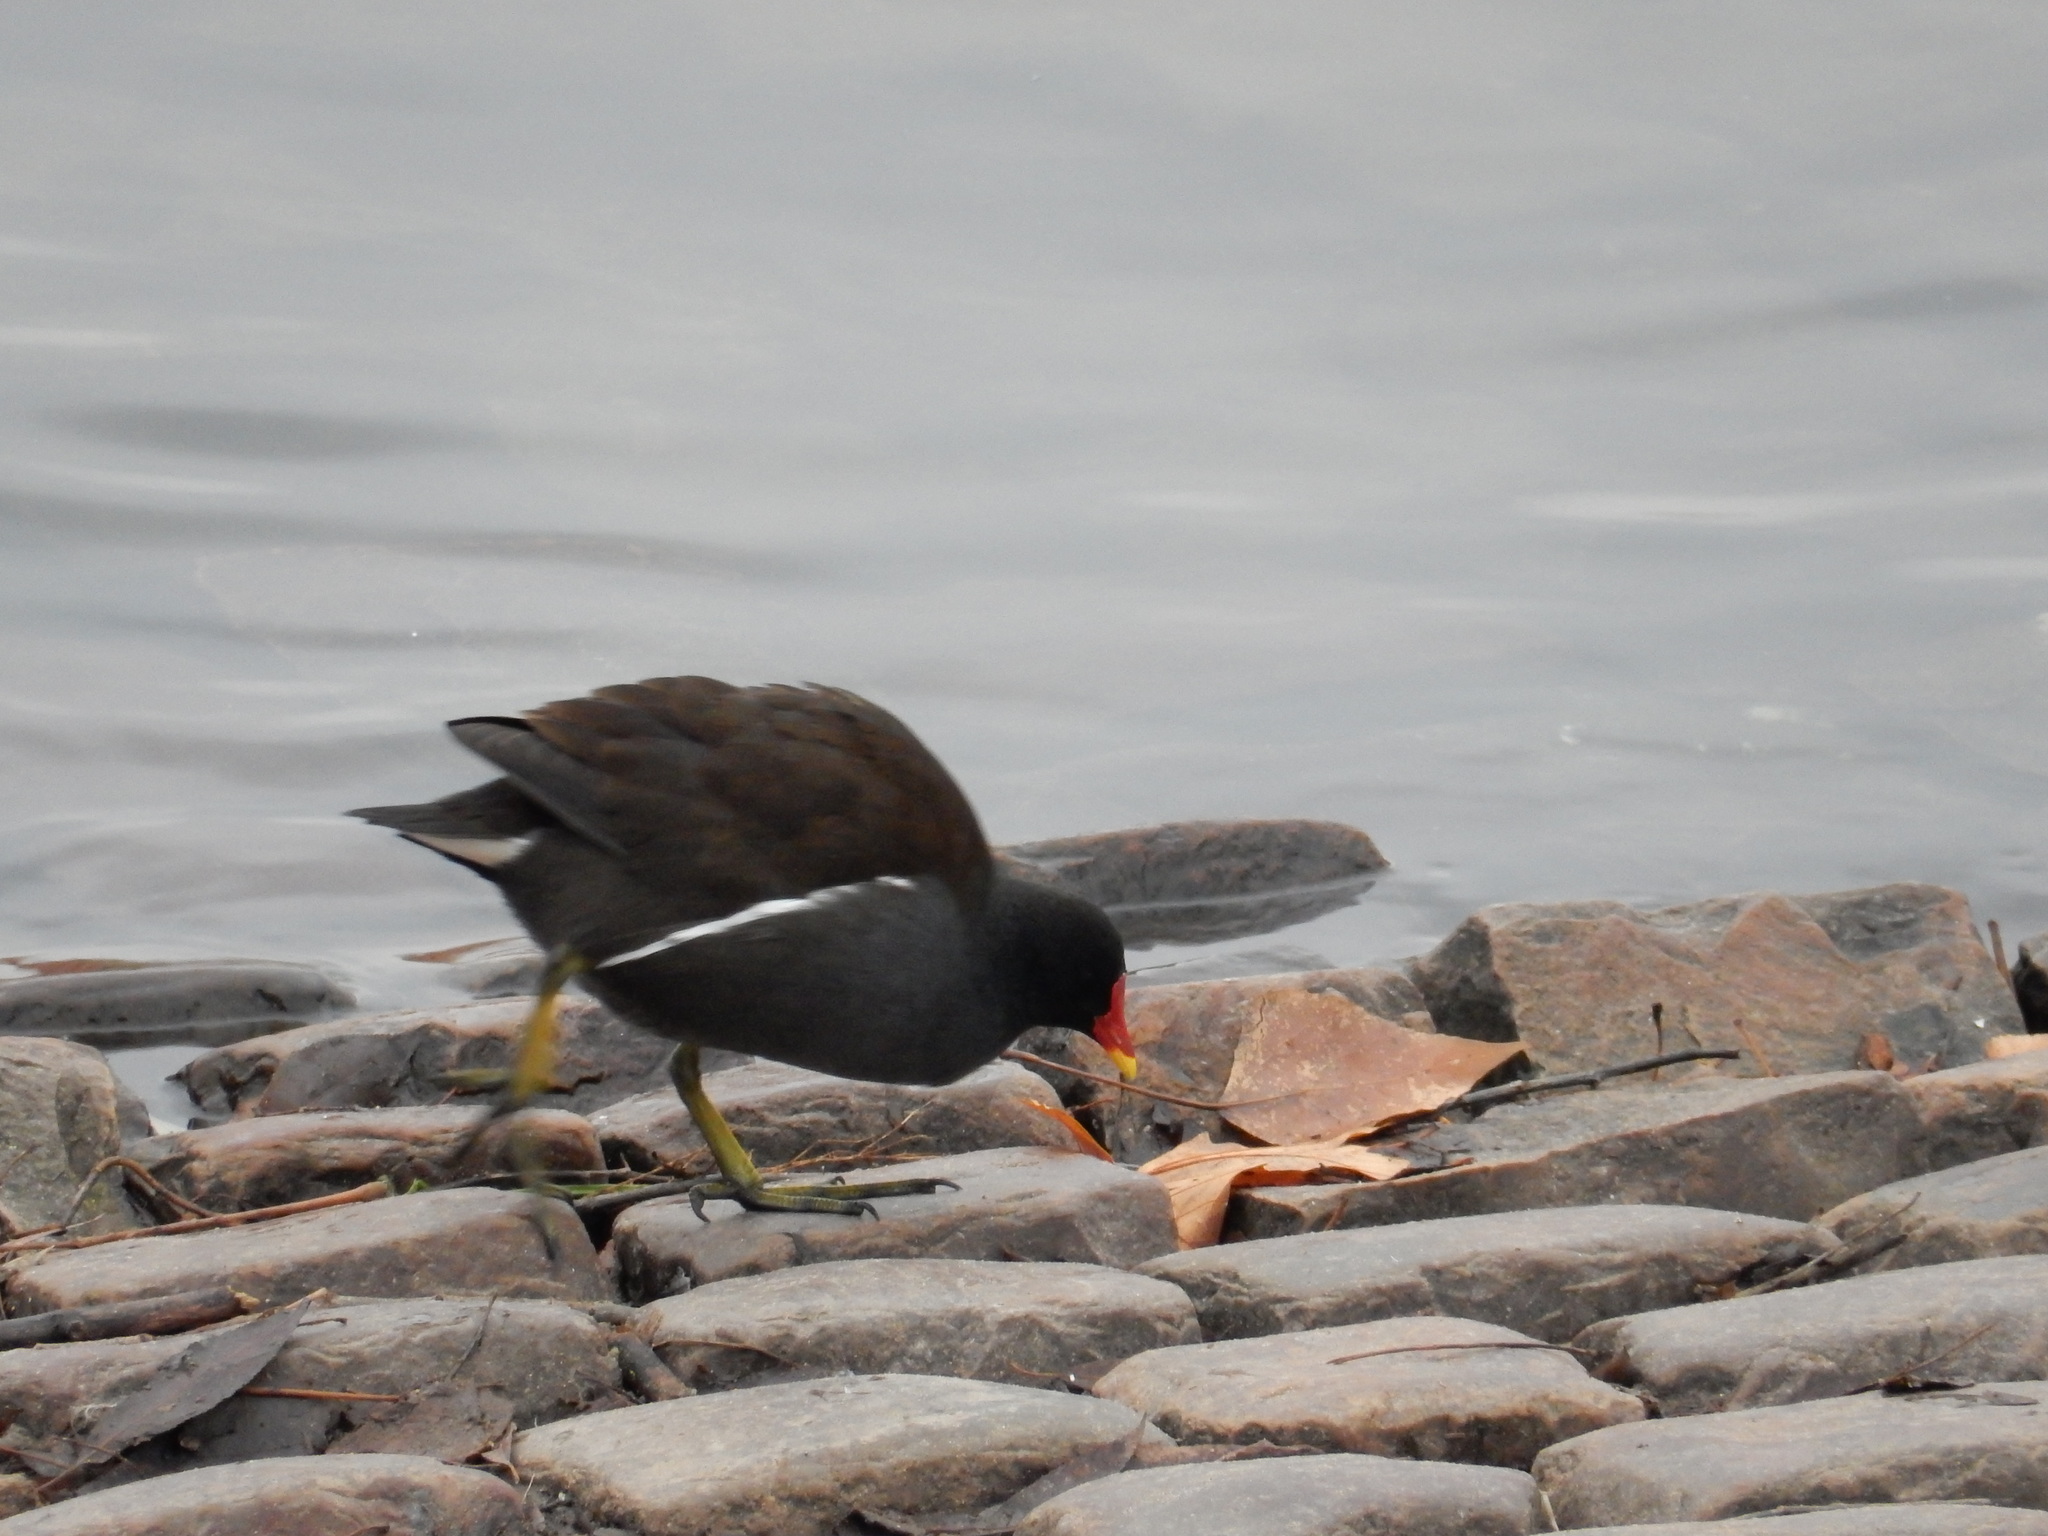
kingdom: Animalia
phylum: Chordata
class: Aves
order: Gruiformes
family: Rallidae
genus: Gallinula
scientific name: Gallinula chloropus
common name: Common moorhen
